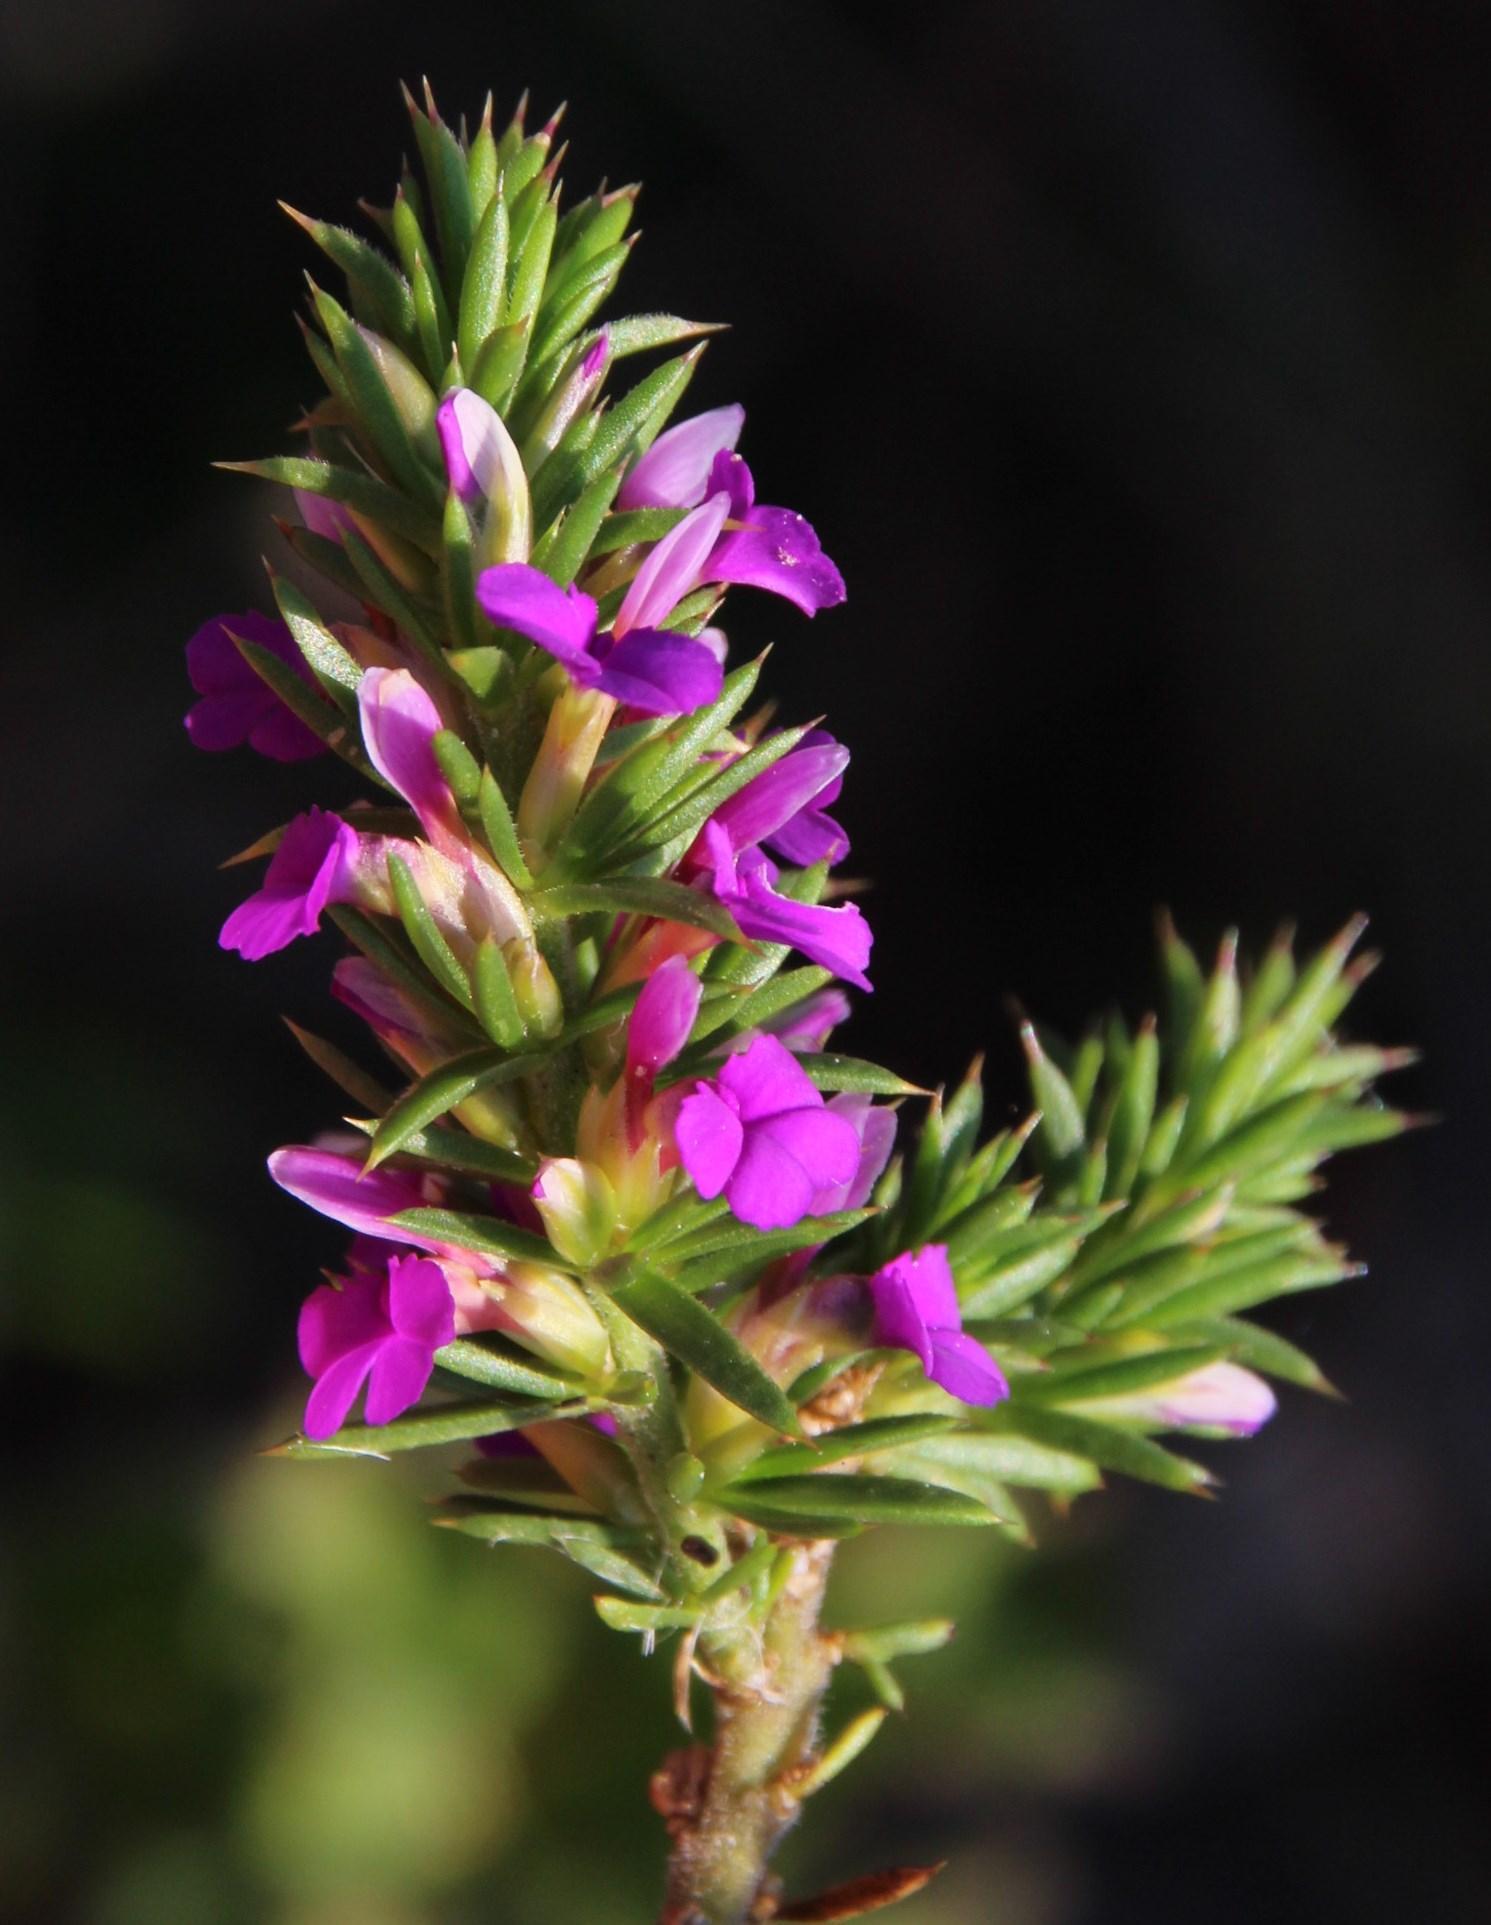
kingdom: Plantae
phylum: Tracheophyta
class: Magnoliopsida
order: Fabales
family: Polygalaceae
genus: Muraltia
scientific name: Muraltia heisteria
